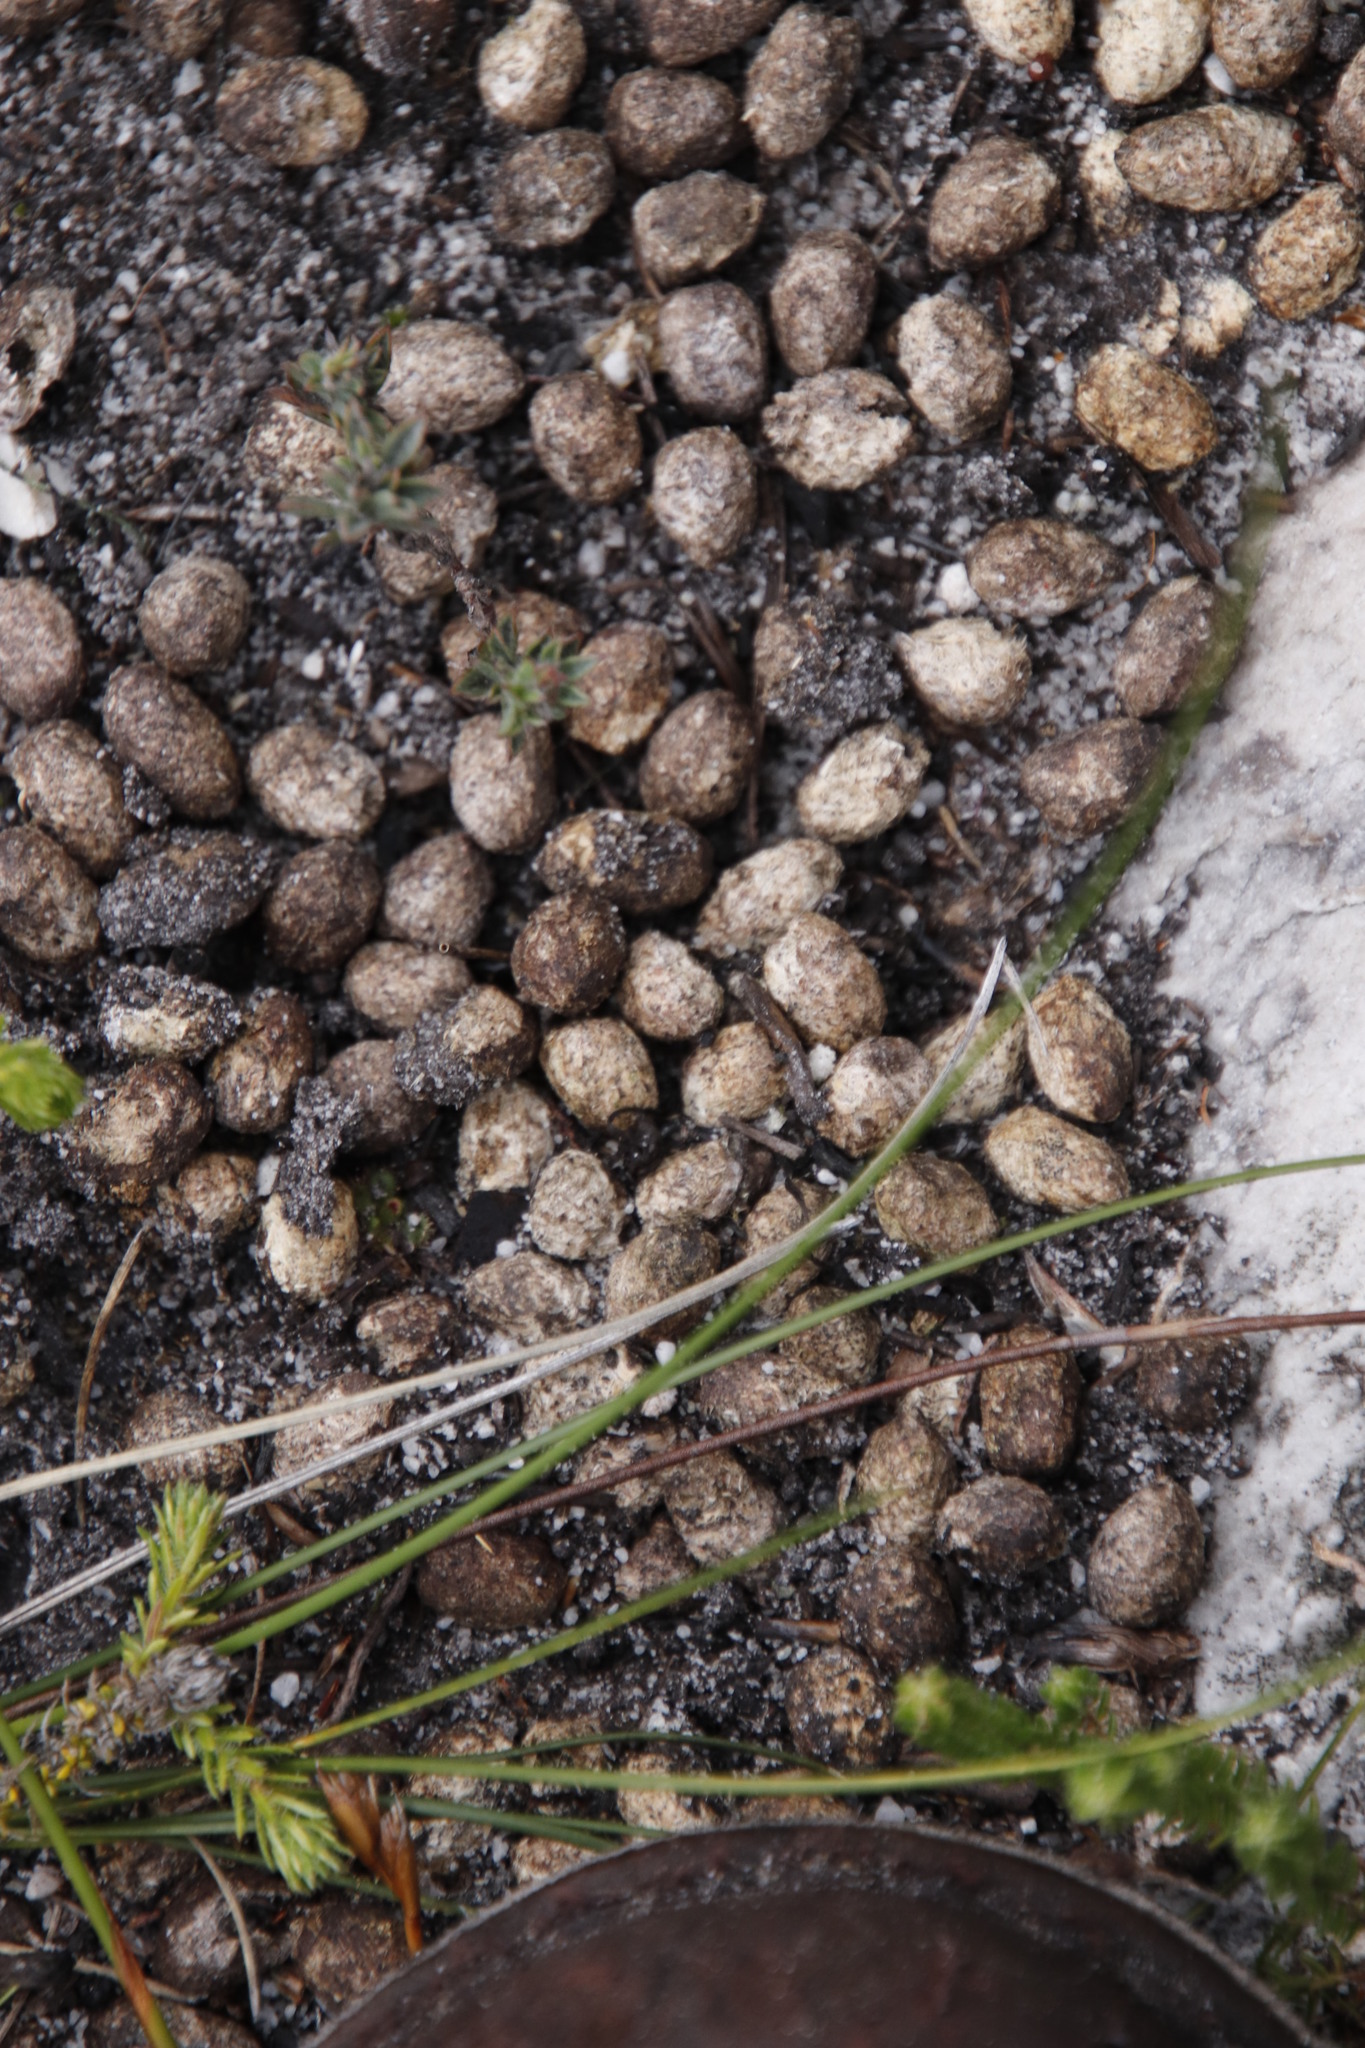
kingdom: Animalia
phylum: Chordata
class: Mammalia
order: Lagomorpha
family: Leporidae
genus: Pronolagus
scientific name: Pronolagus saundersiae
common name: Hewitt's red rock hare
